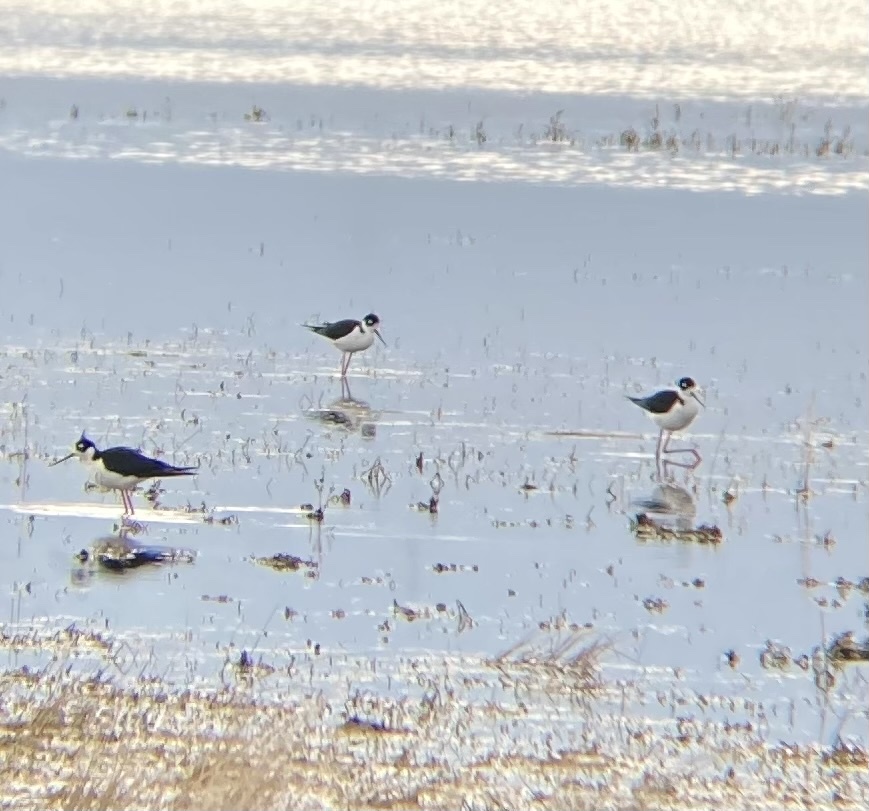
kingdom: Animalia
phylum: Chordata
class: Aves
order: Charadriiformes
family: Recurvirostridae
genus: Himantopus
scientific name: Himantopus mexicanus
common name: Black-necked stilt
